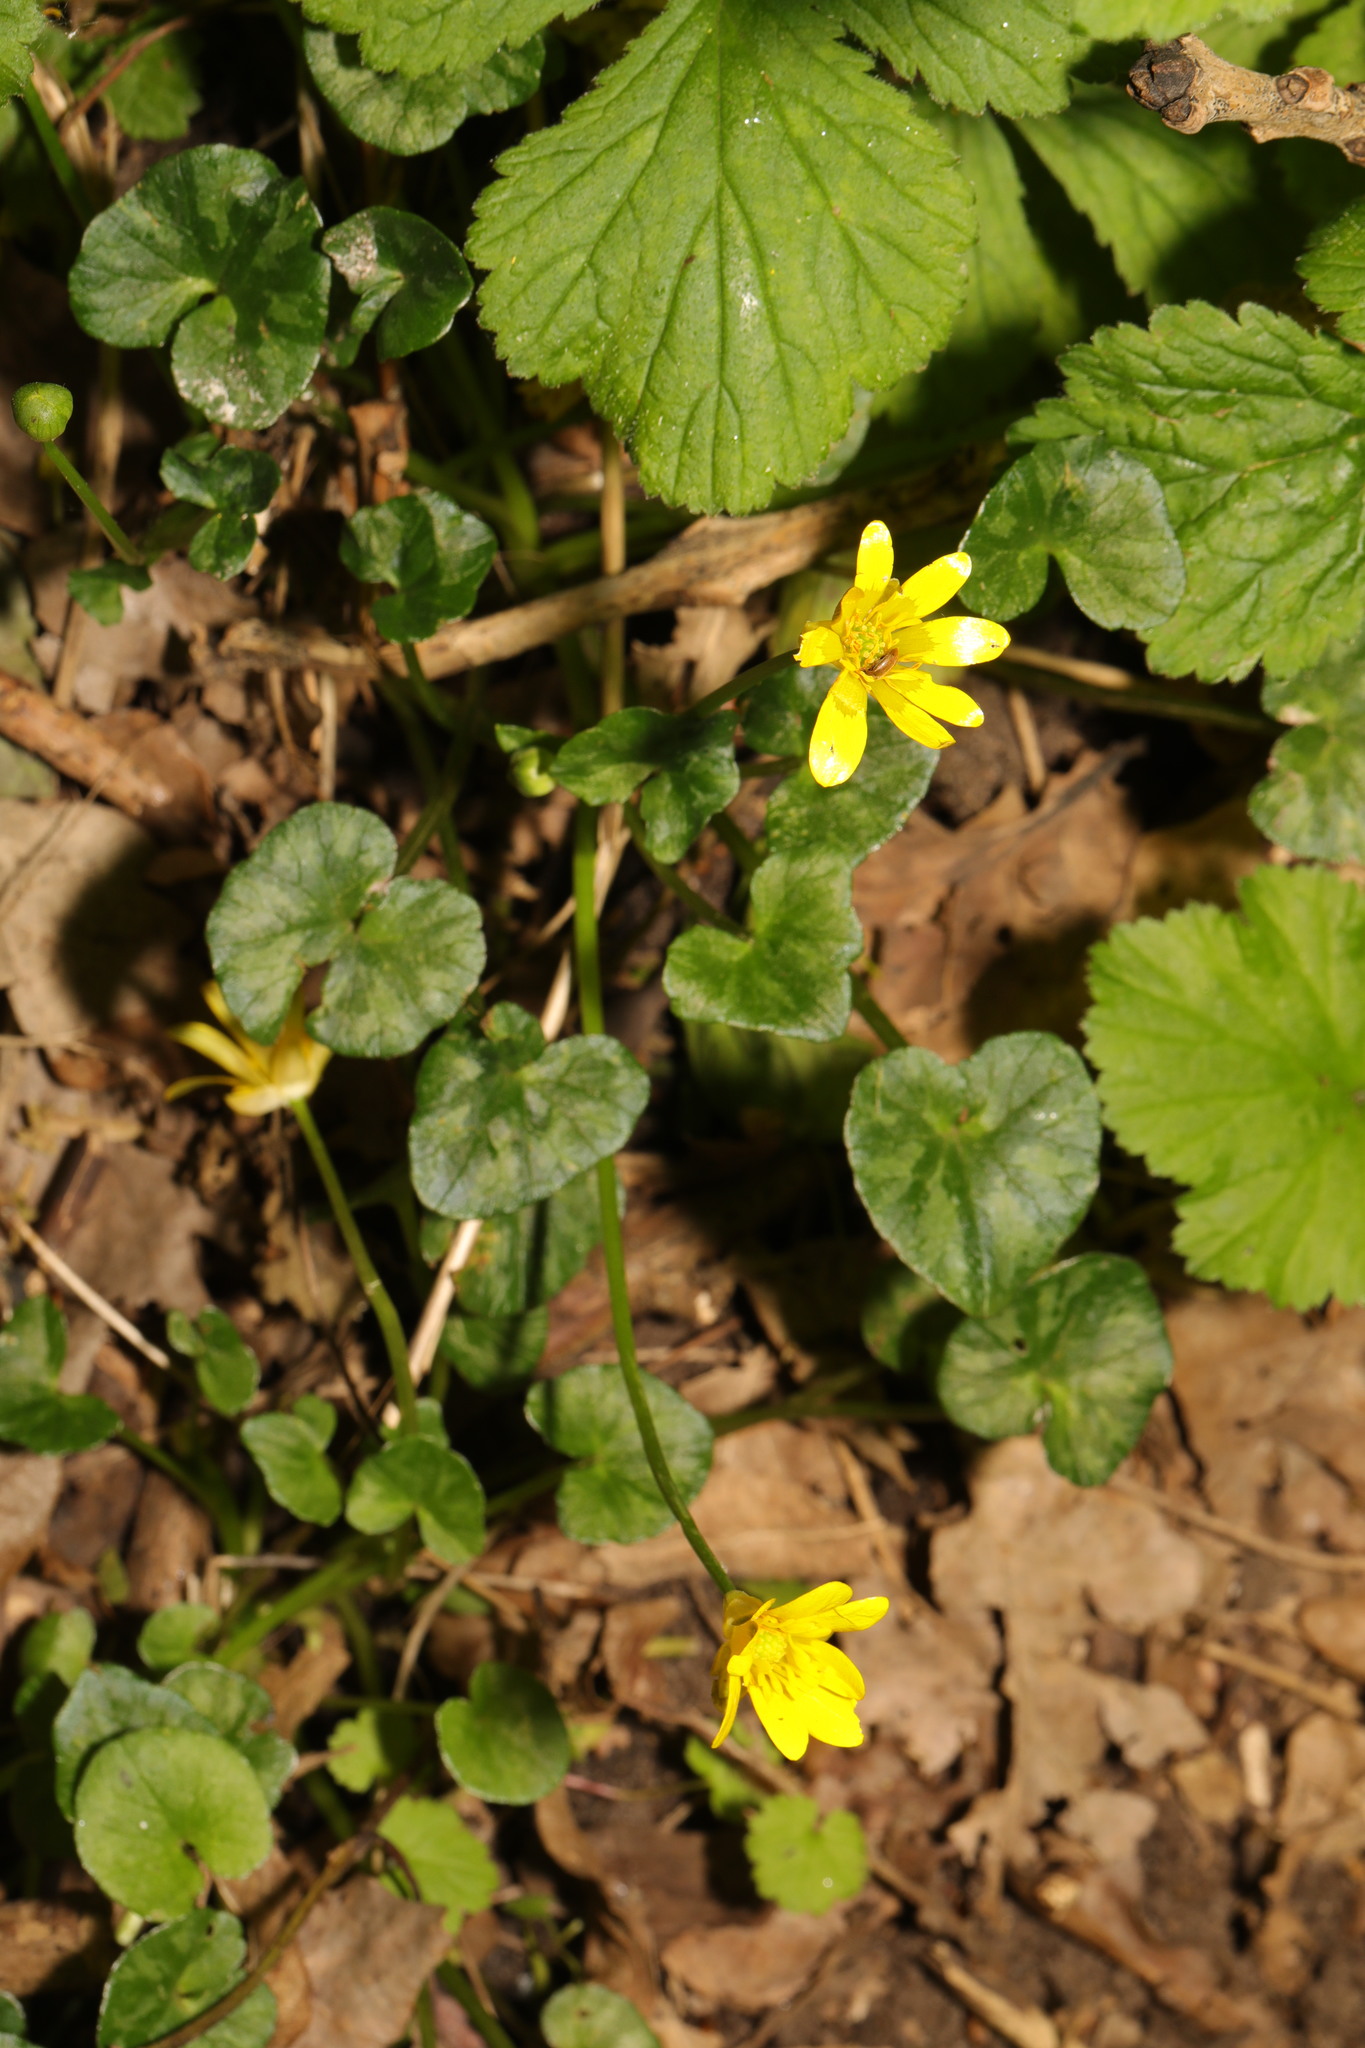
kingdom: Plantae
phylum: Tracheophyta
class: Magnoliopsida
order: Ranunculales
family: Ranunculaceae
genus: Ficaria
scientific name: Ficaria verna
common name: Lesser celandine
